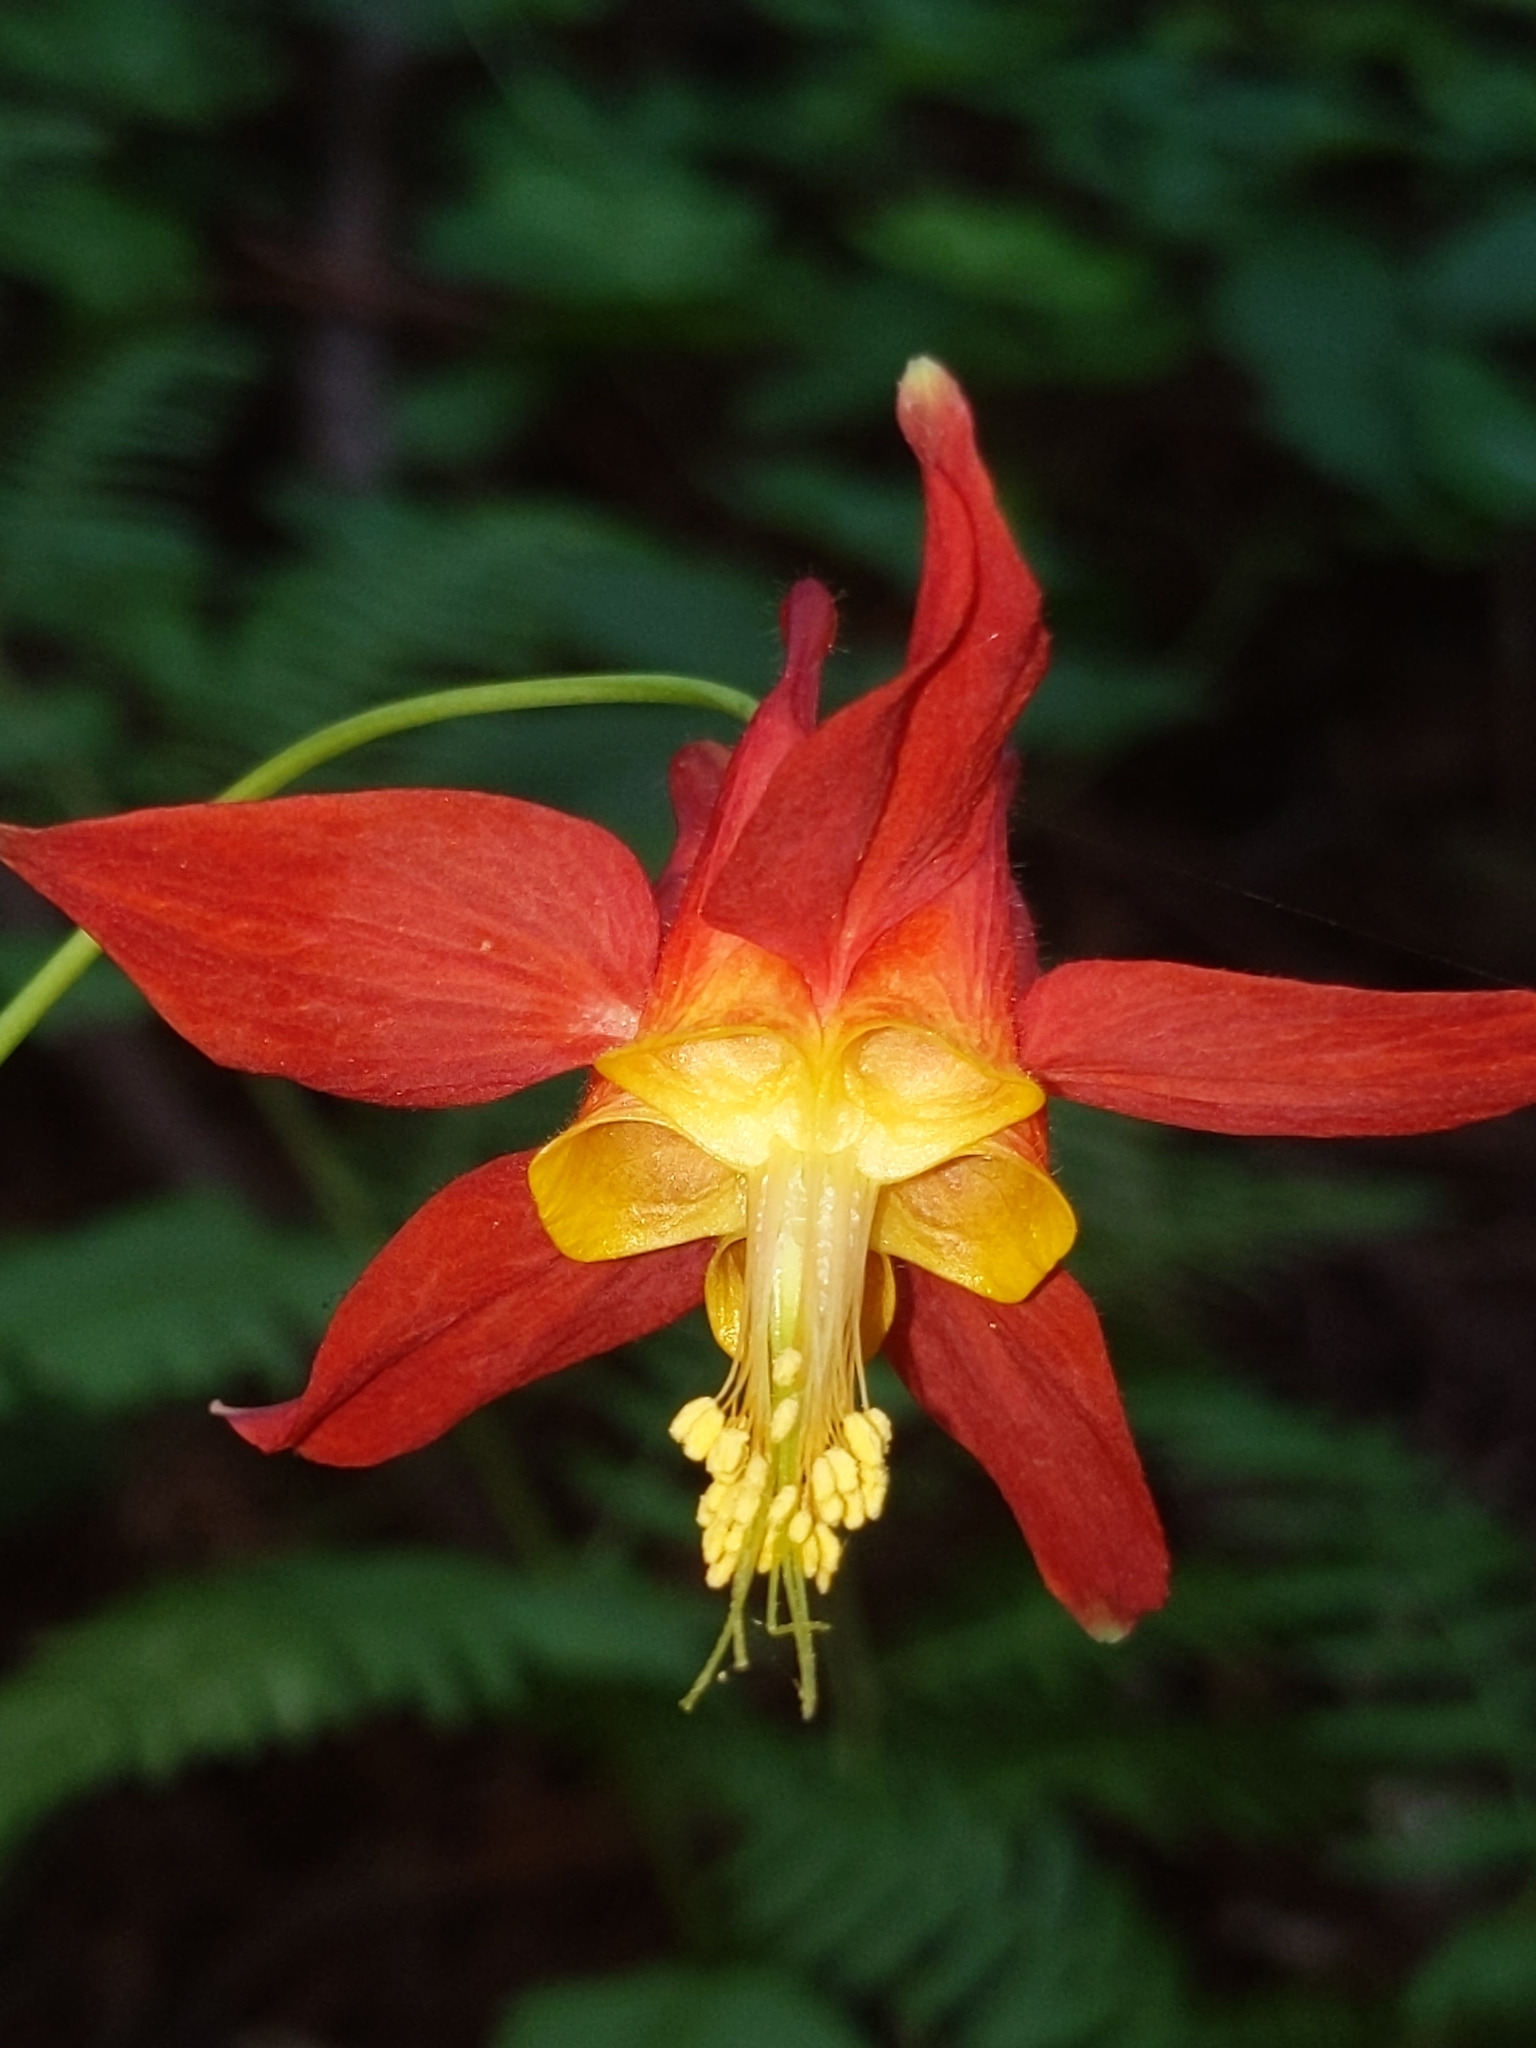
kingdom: Plantae
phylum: Tracheophyta
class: Magnoliopsida
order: Ranunculales
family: Ranunculaceae
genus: Aquilegia
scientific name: Aquilegia formosa
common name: Sitka columbine
